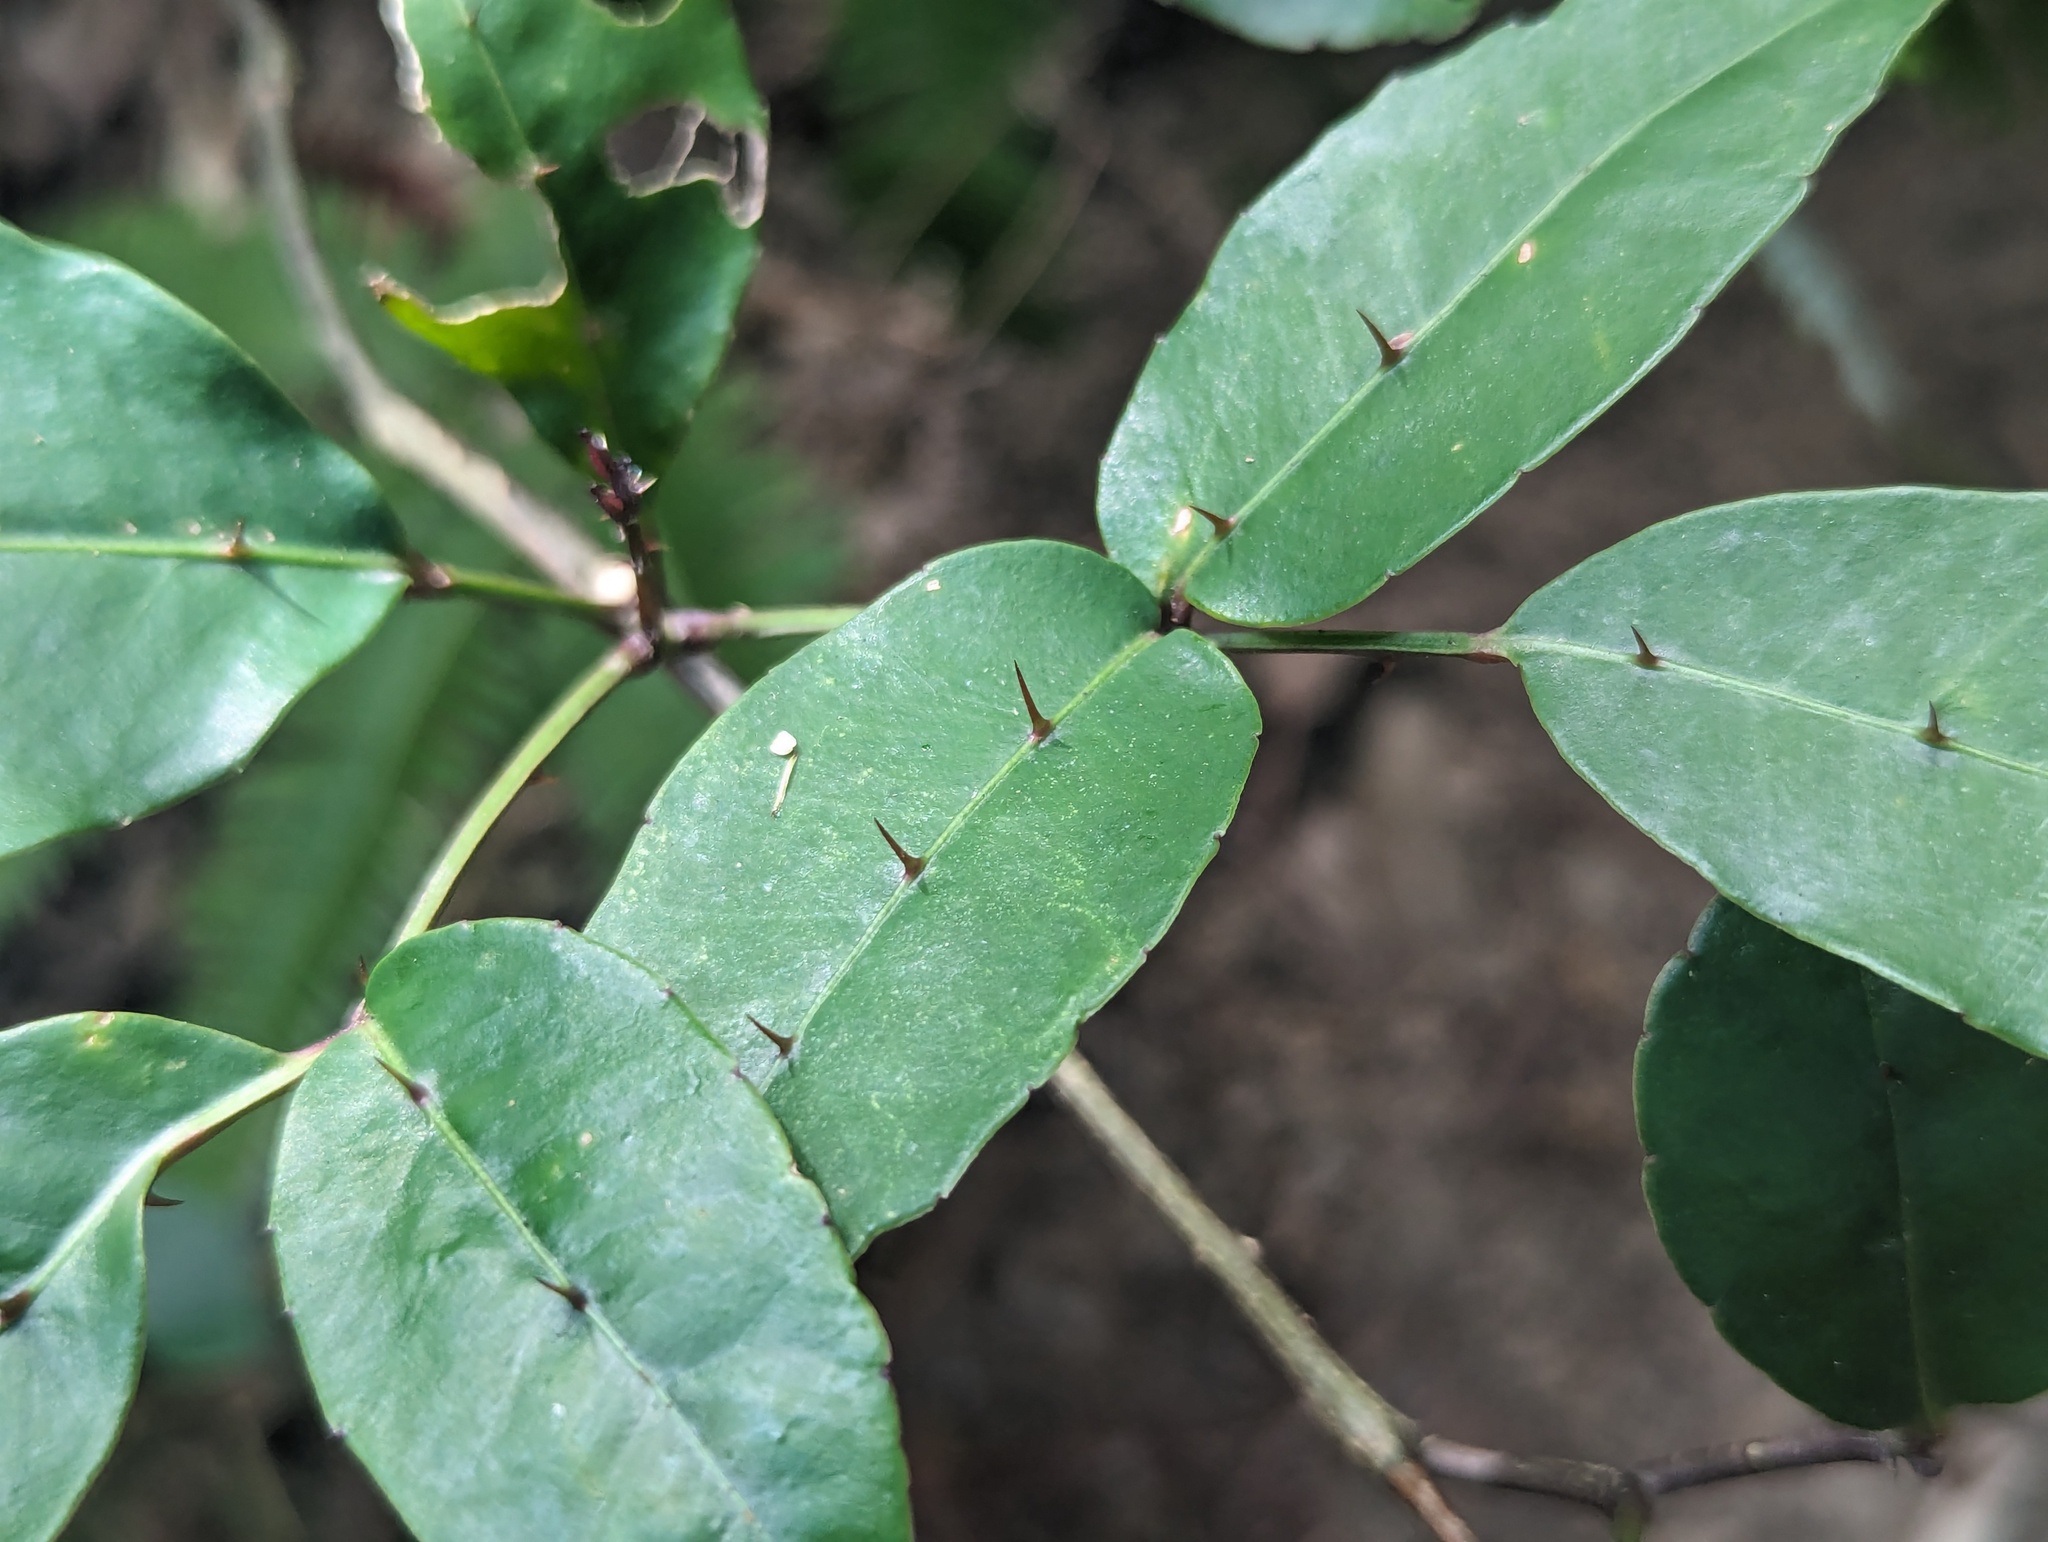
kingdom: Plantae
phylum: Tracheophyta
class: Magnoliopsida
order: Sapindales
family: Rutaceae
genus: Zanthoxylum
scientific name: Zanthoxylum nitidum
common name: Shiny-leaf prickly-ash
